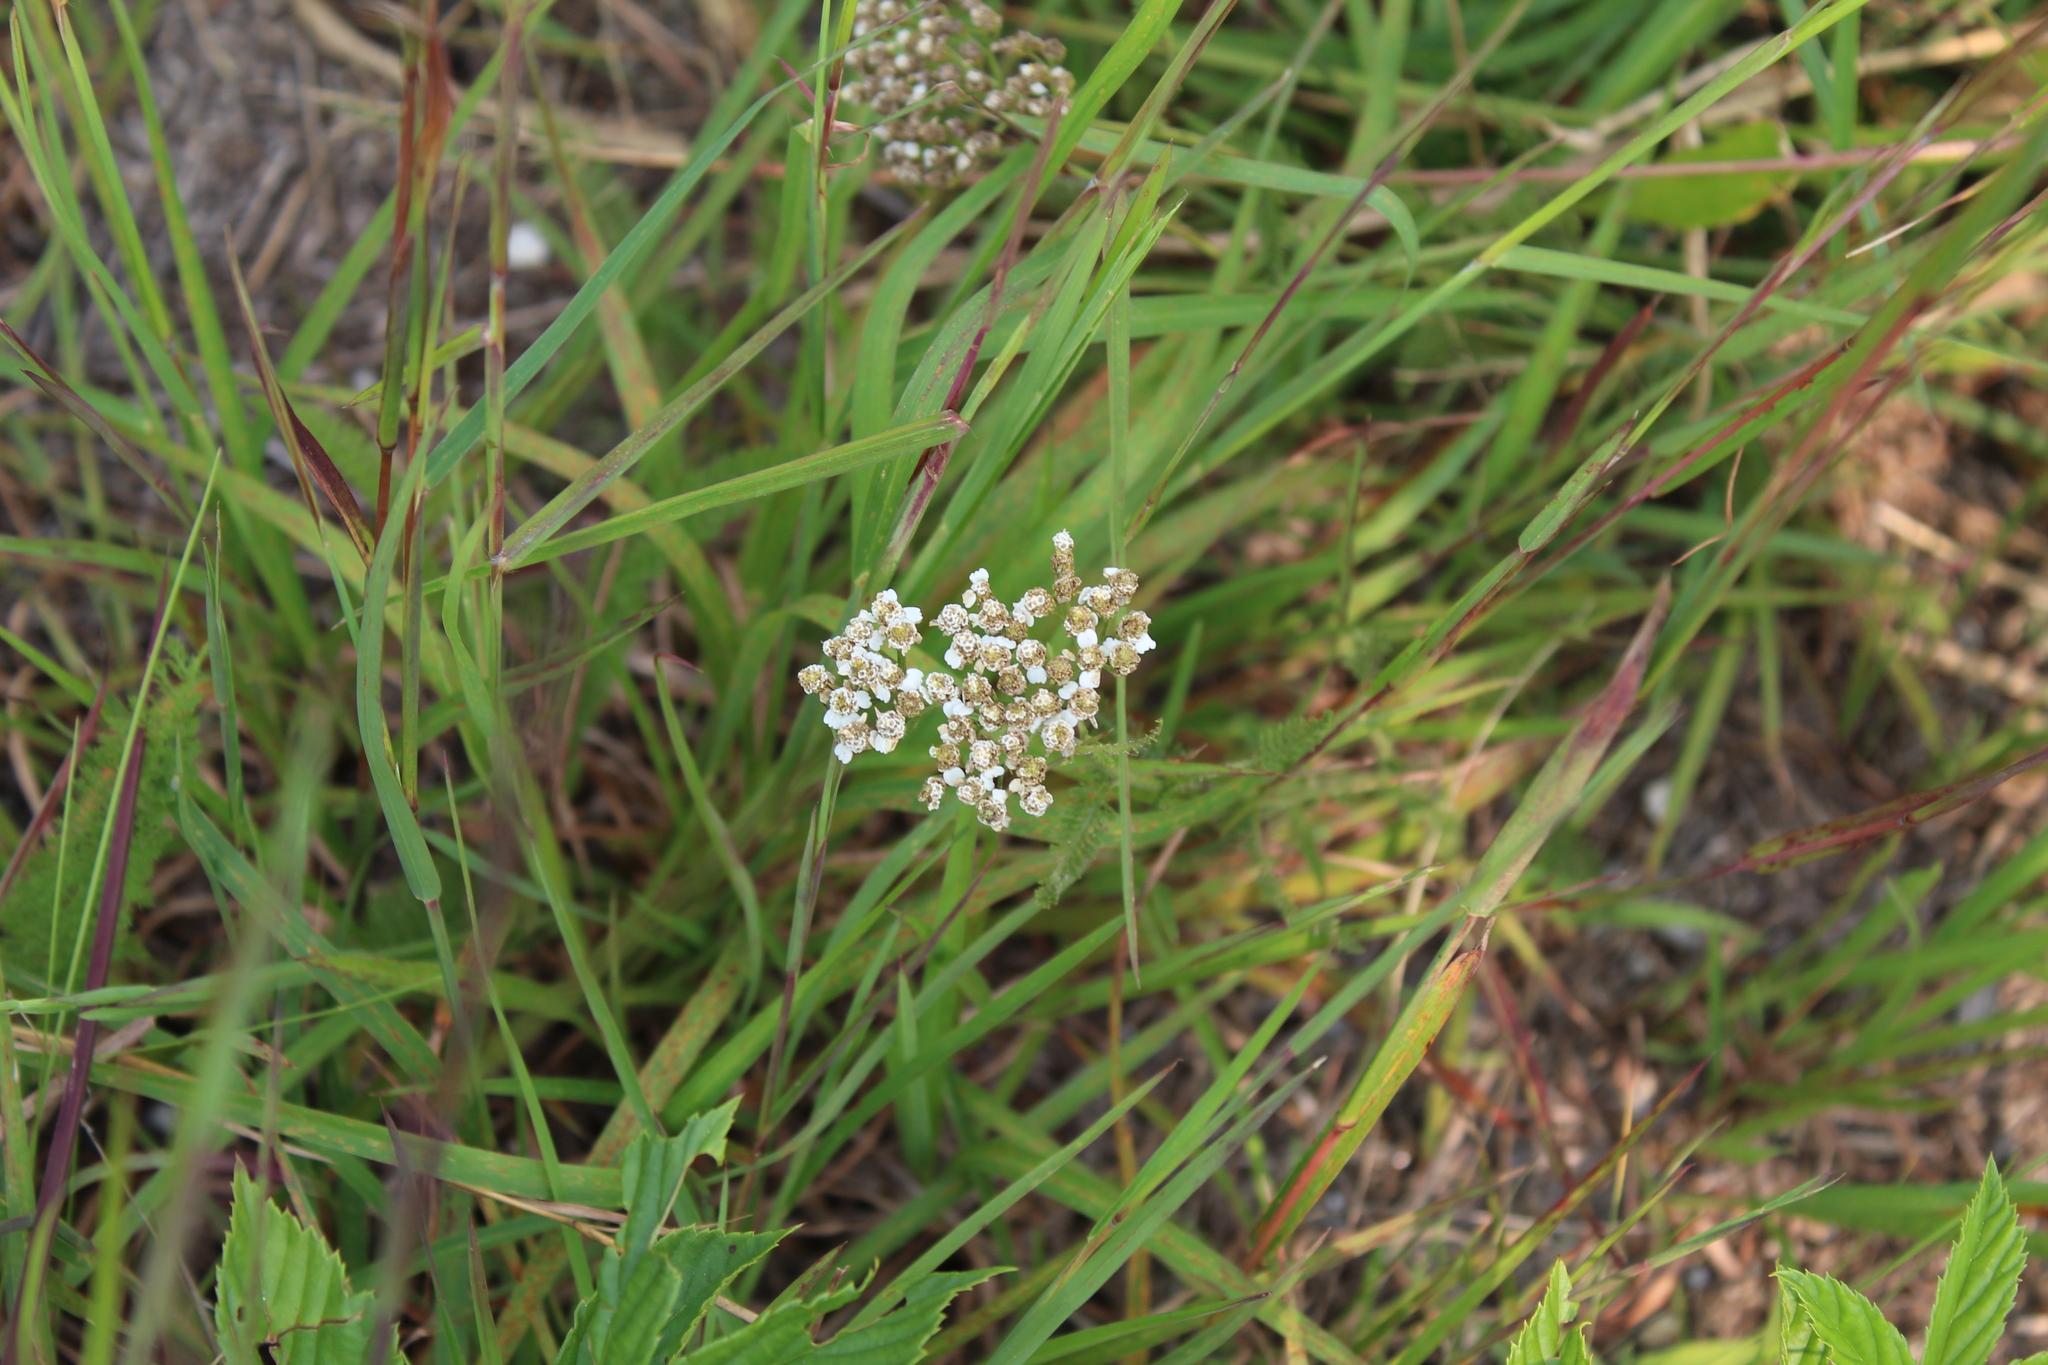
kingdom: Plantae
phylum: Tracheophyta
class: Magnoliopsida
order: Asterales
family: Asteraceae
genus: Achillea
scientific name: Achillea millefolium
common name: Yarrow
